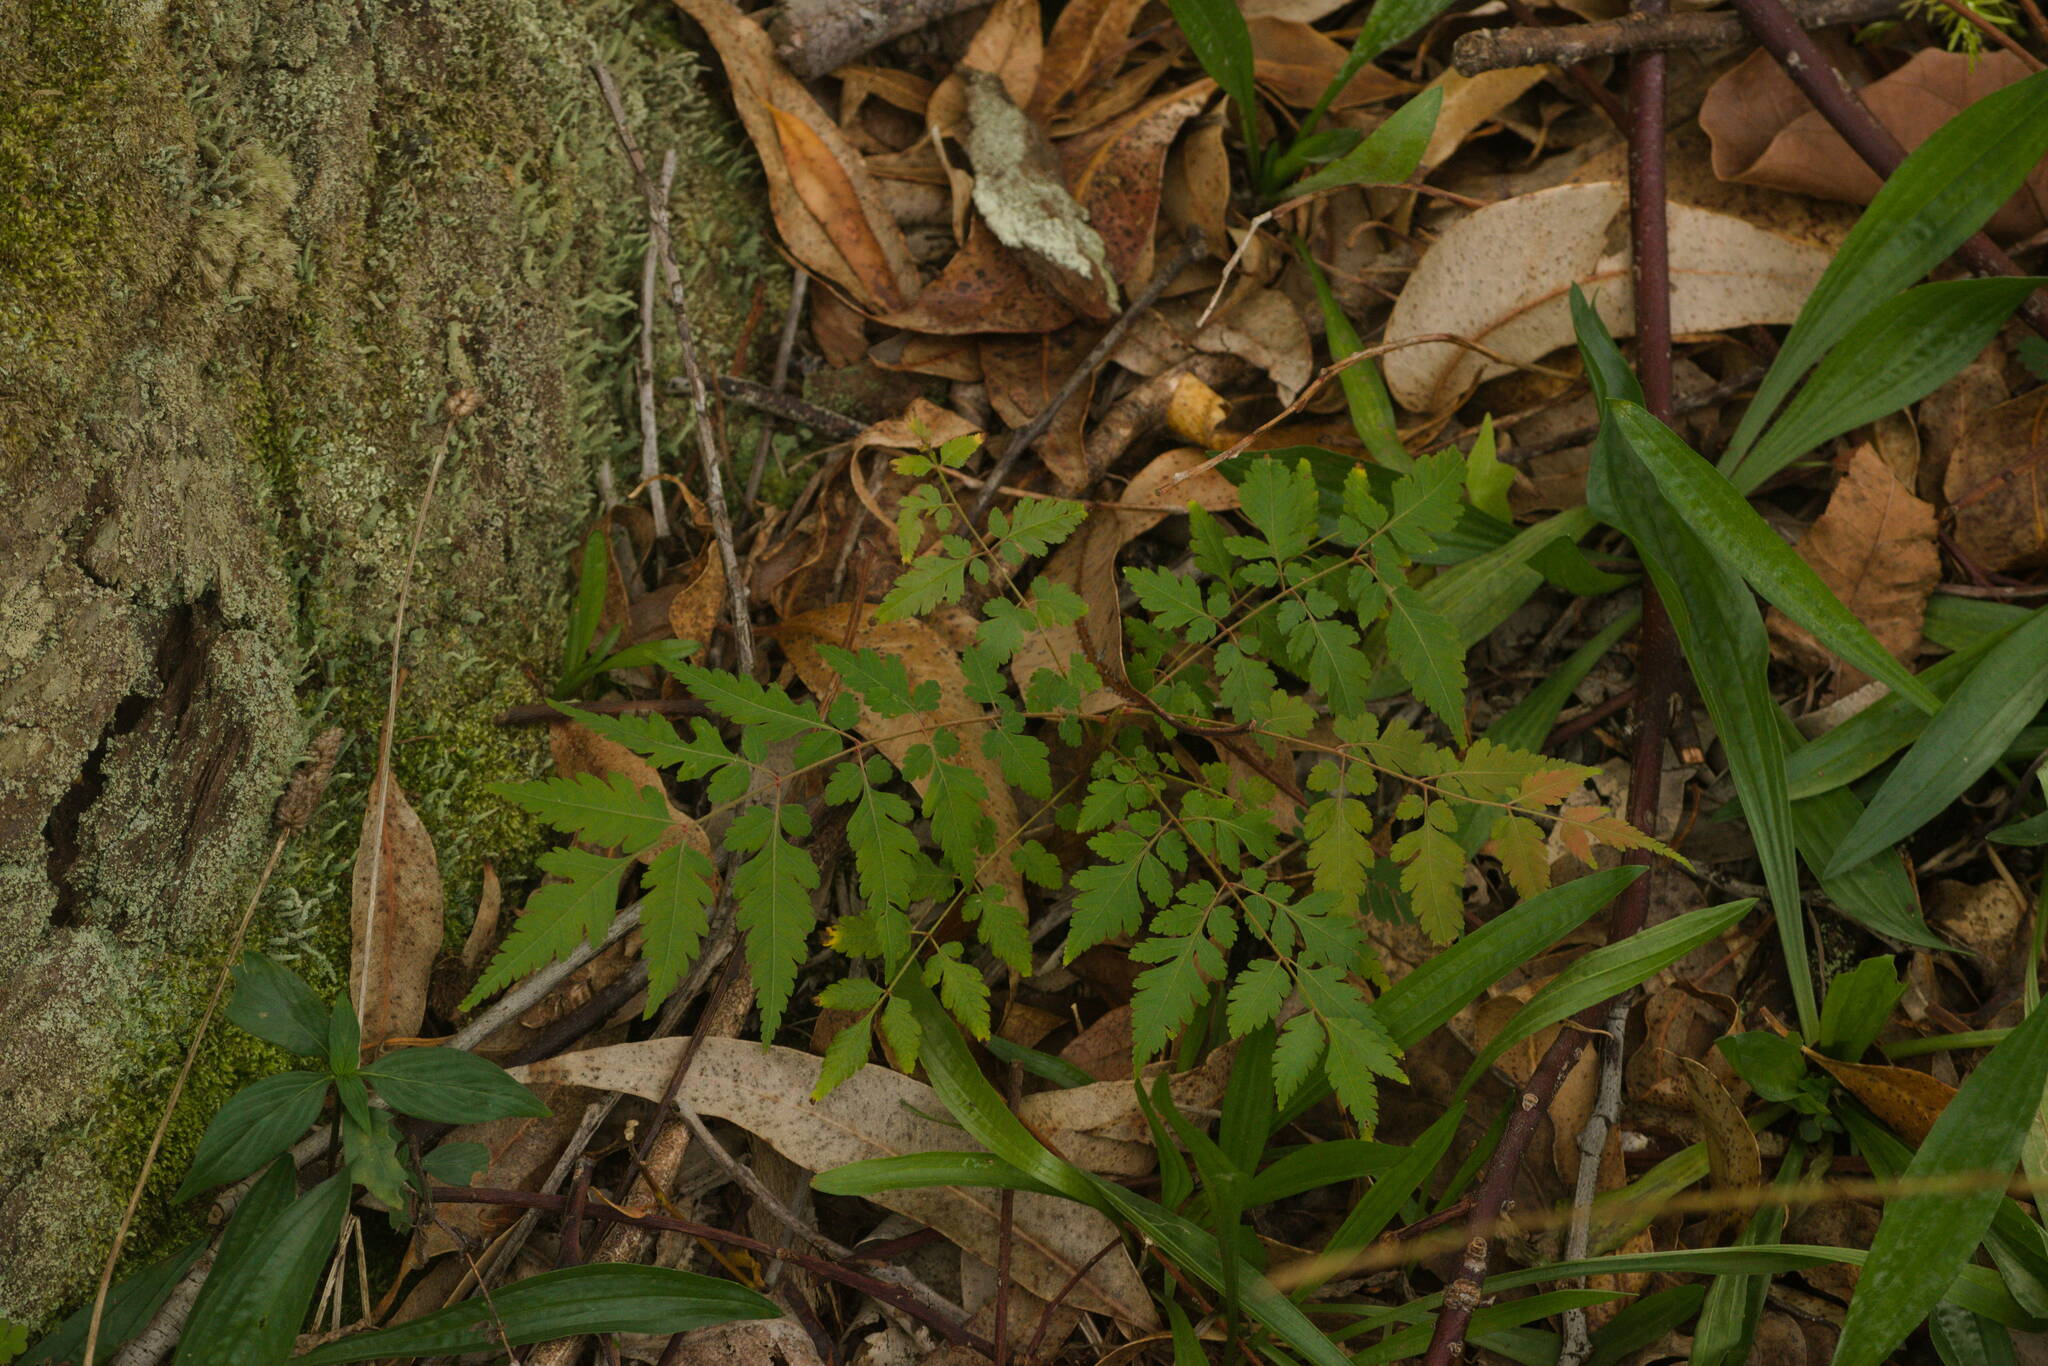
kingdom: Plantae
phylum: Tracheophyta
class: Magnoliopsida
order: Sapindales
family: Sapindaceae
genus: Koelreuteria
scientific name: Koelreuteria elegans
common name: Chinese flame tree
